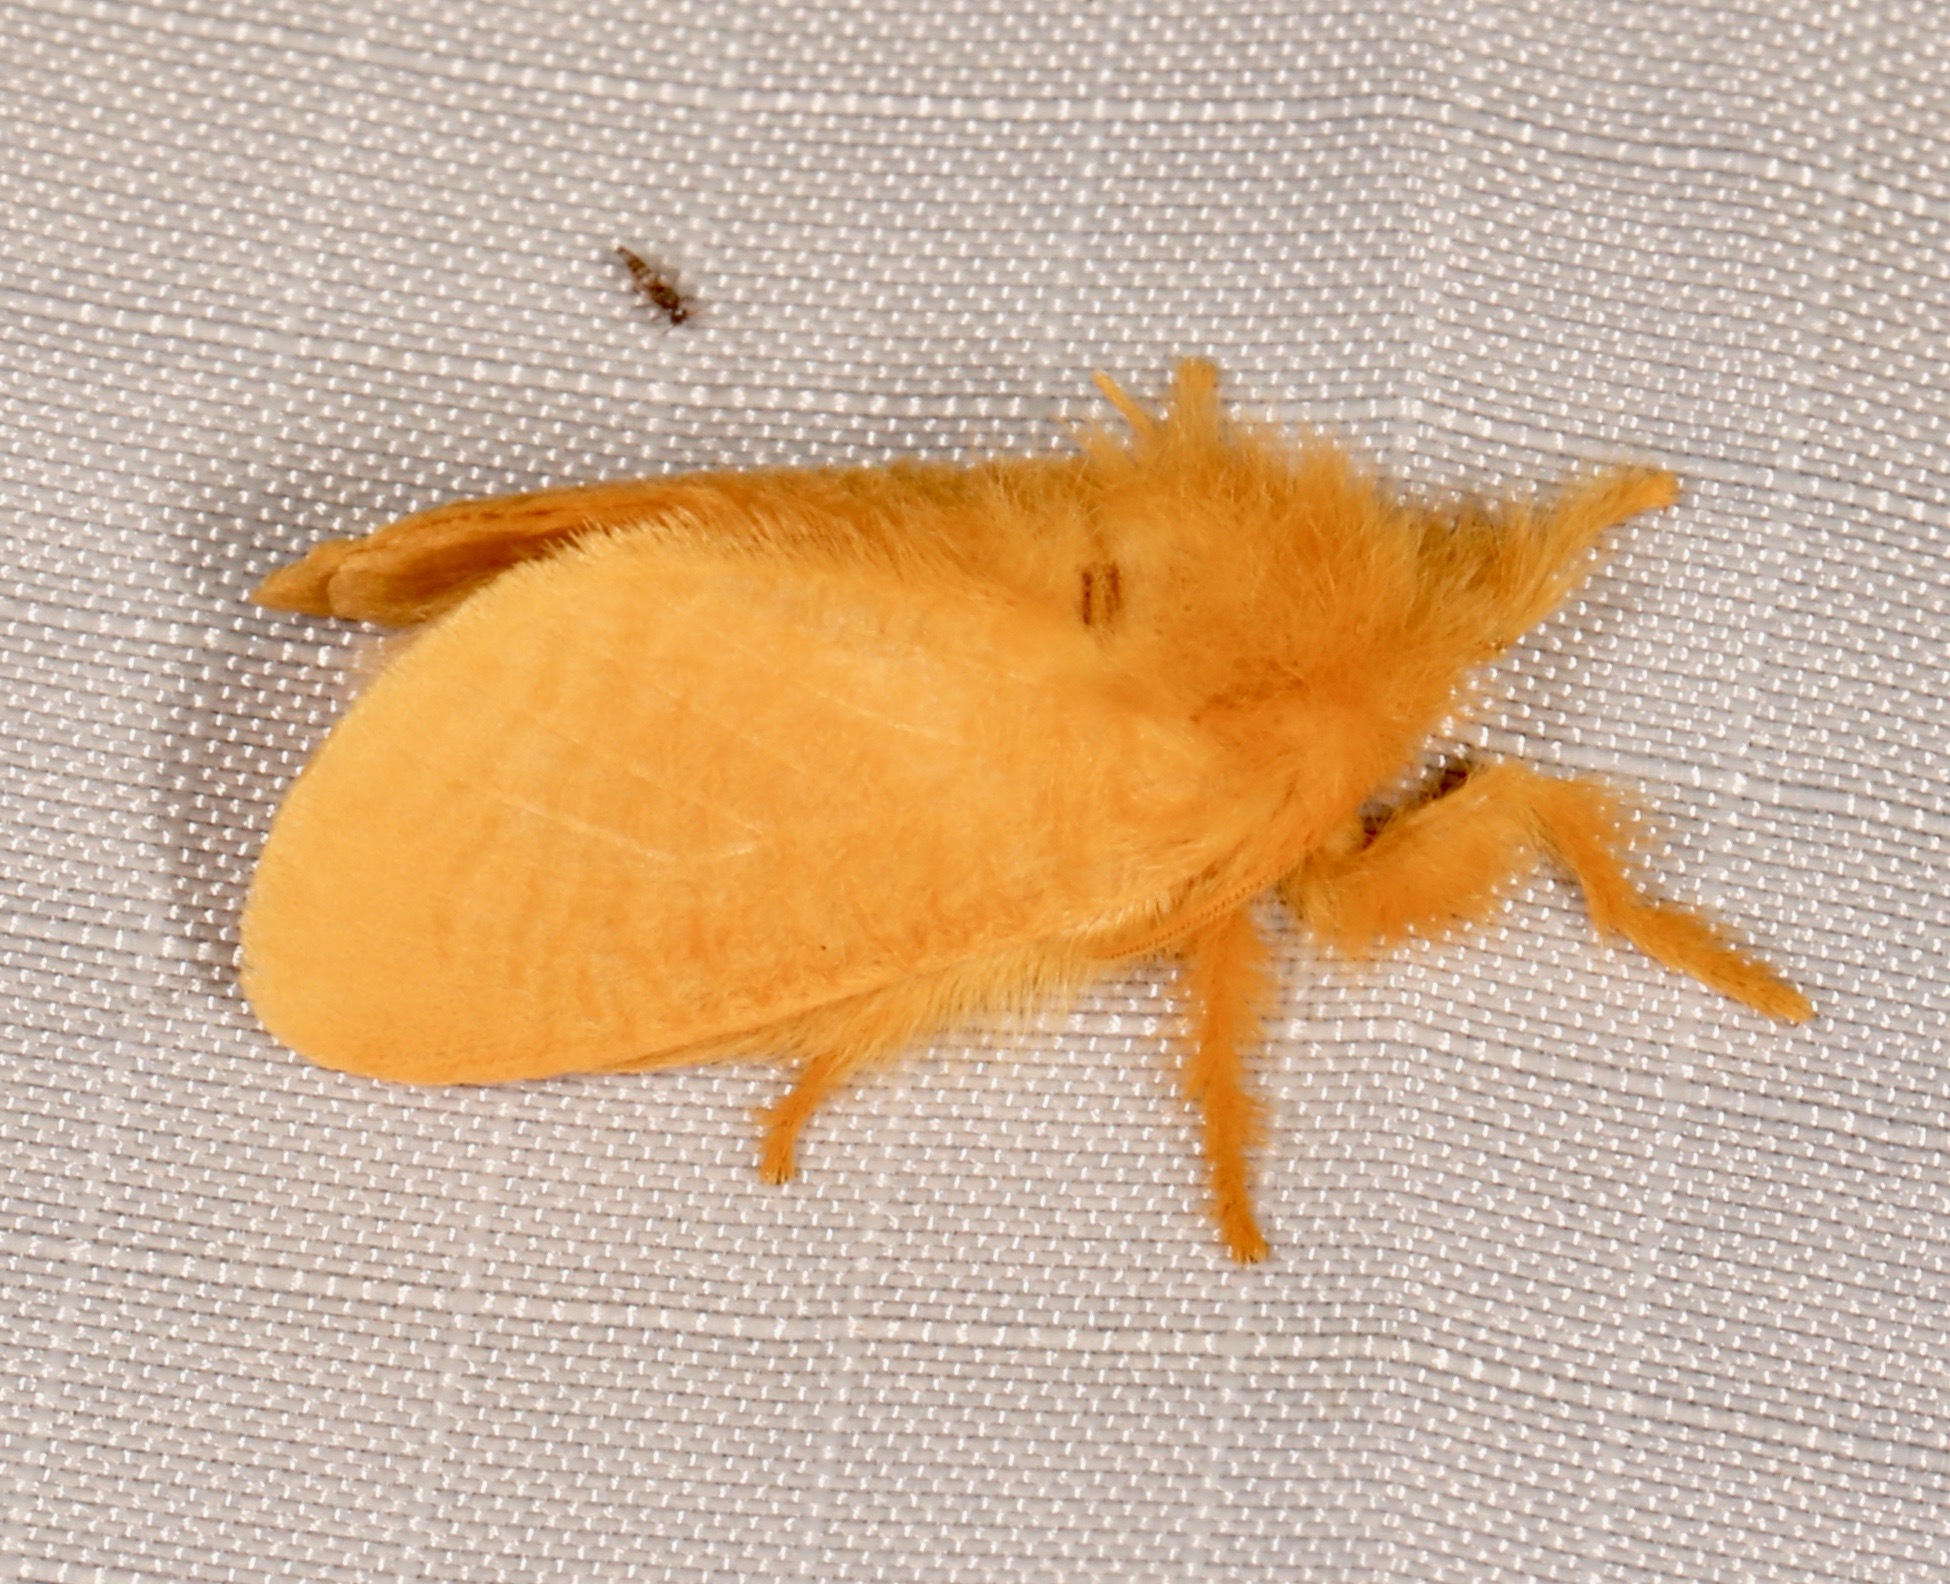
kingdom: Animalia
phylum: Arthropoda
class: Insecta
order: Lepidoptera
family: Megalopygidae
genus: Megalopyge
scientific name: Megalopyge pixidifera
